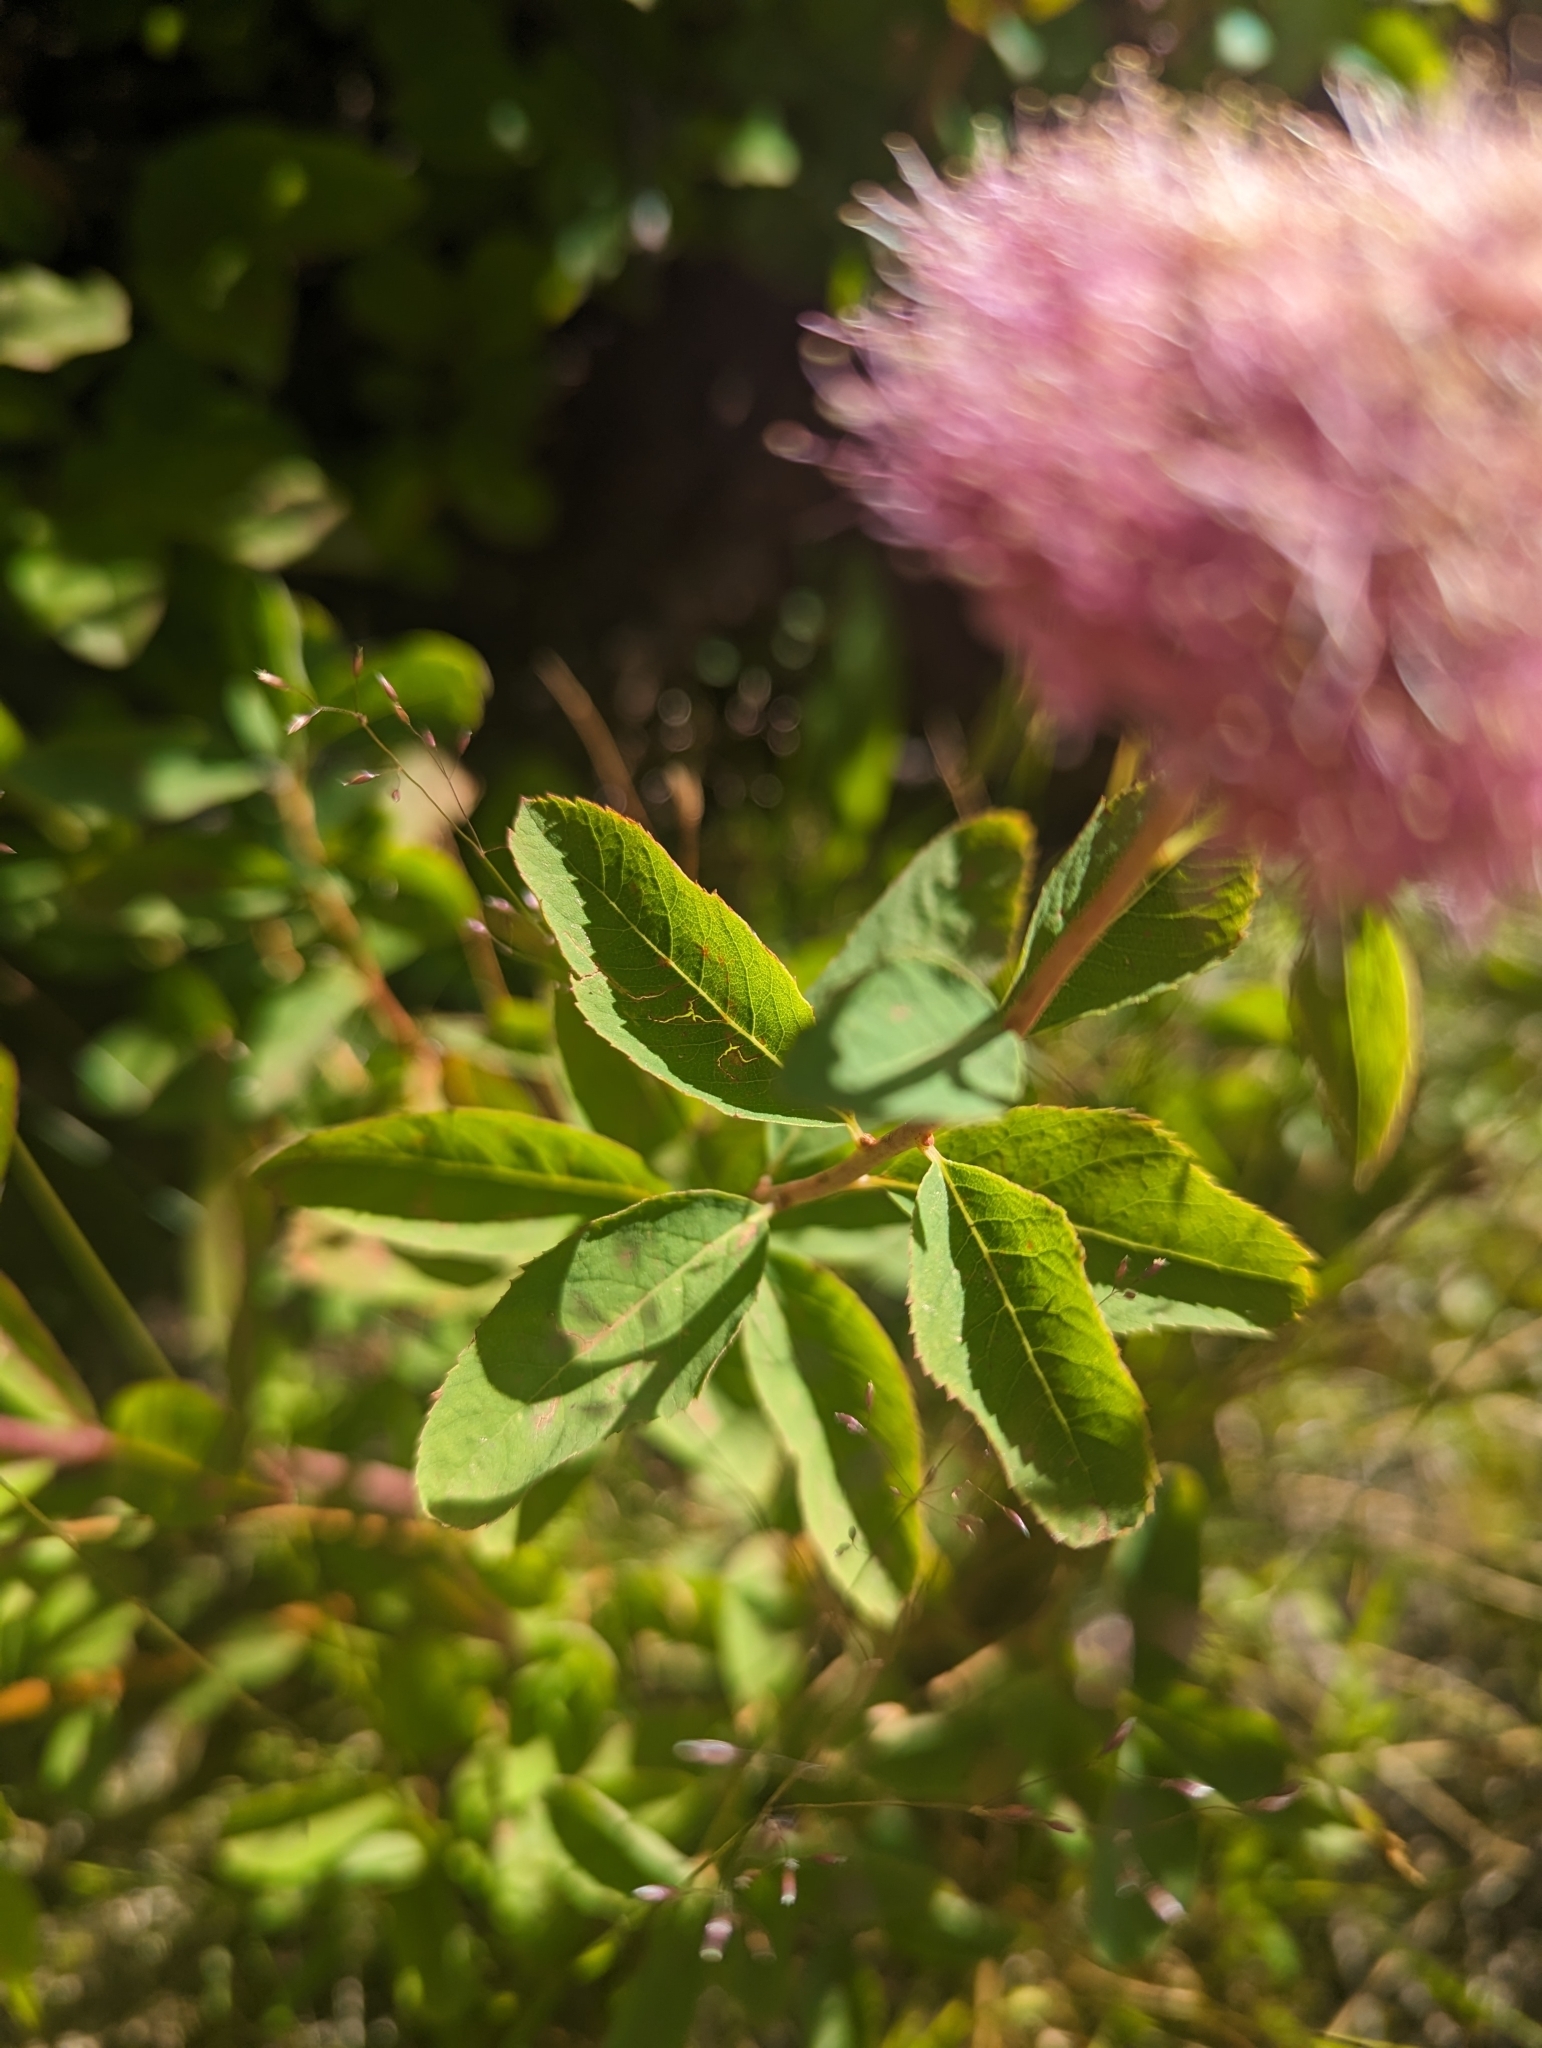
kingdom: Plantae
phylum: Tracheophyta
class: Magnoliopsida
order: Rosales
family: Rosaceae
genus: Spiraea
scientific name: Spiraea splendens
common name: Subalpine meadowsweet
